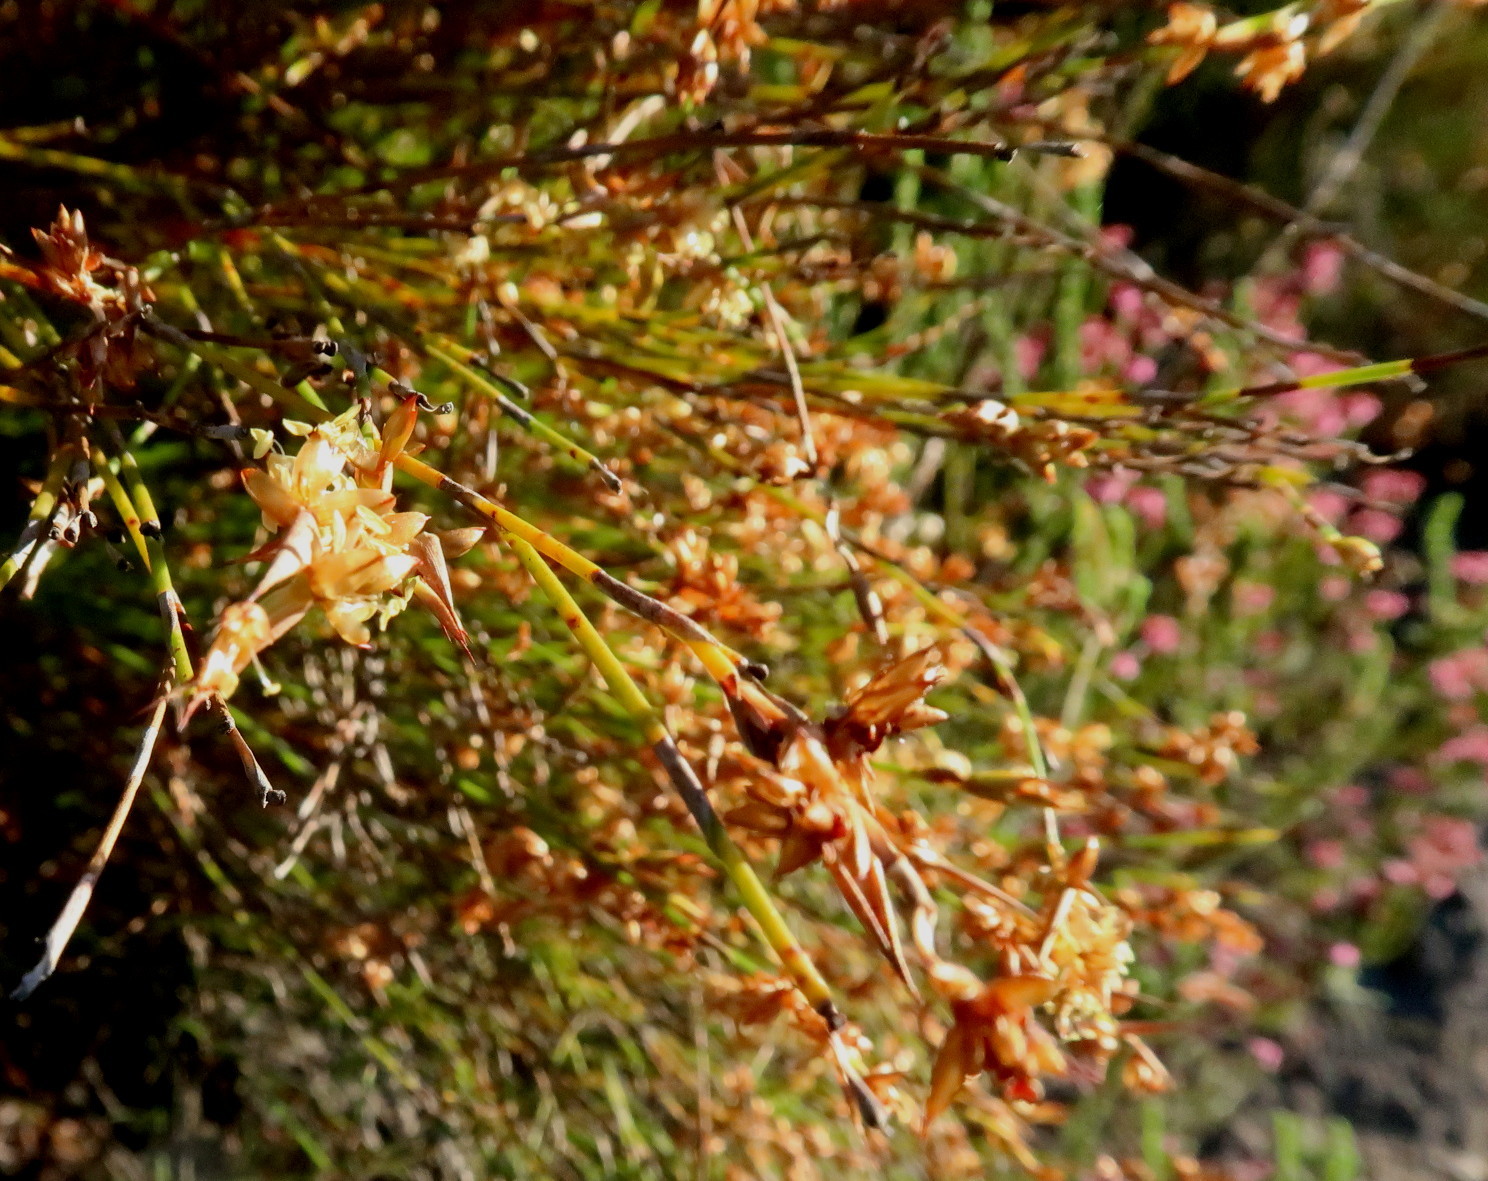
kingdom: Plantae
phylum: Tracheophyta
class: Liliopsida
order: Poales
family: Restionaceae
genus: Mastersiella
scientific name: Mastersiella purpurea
